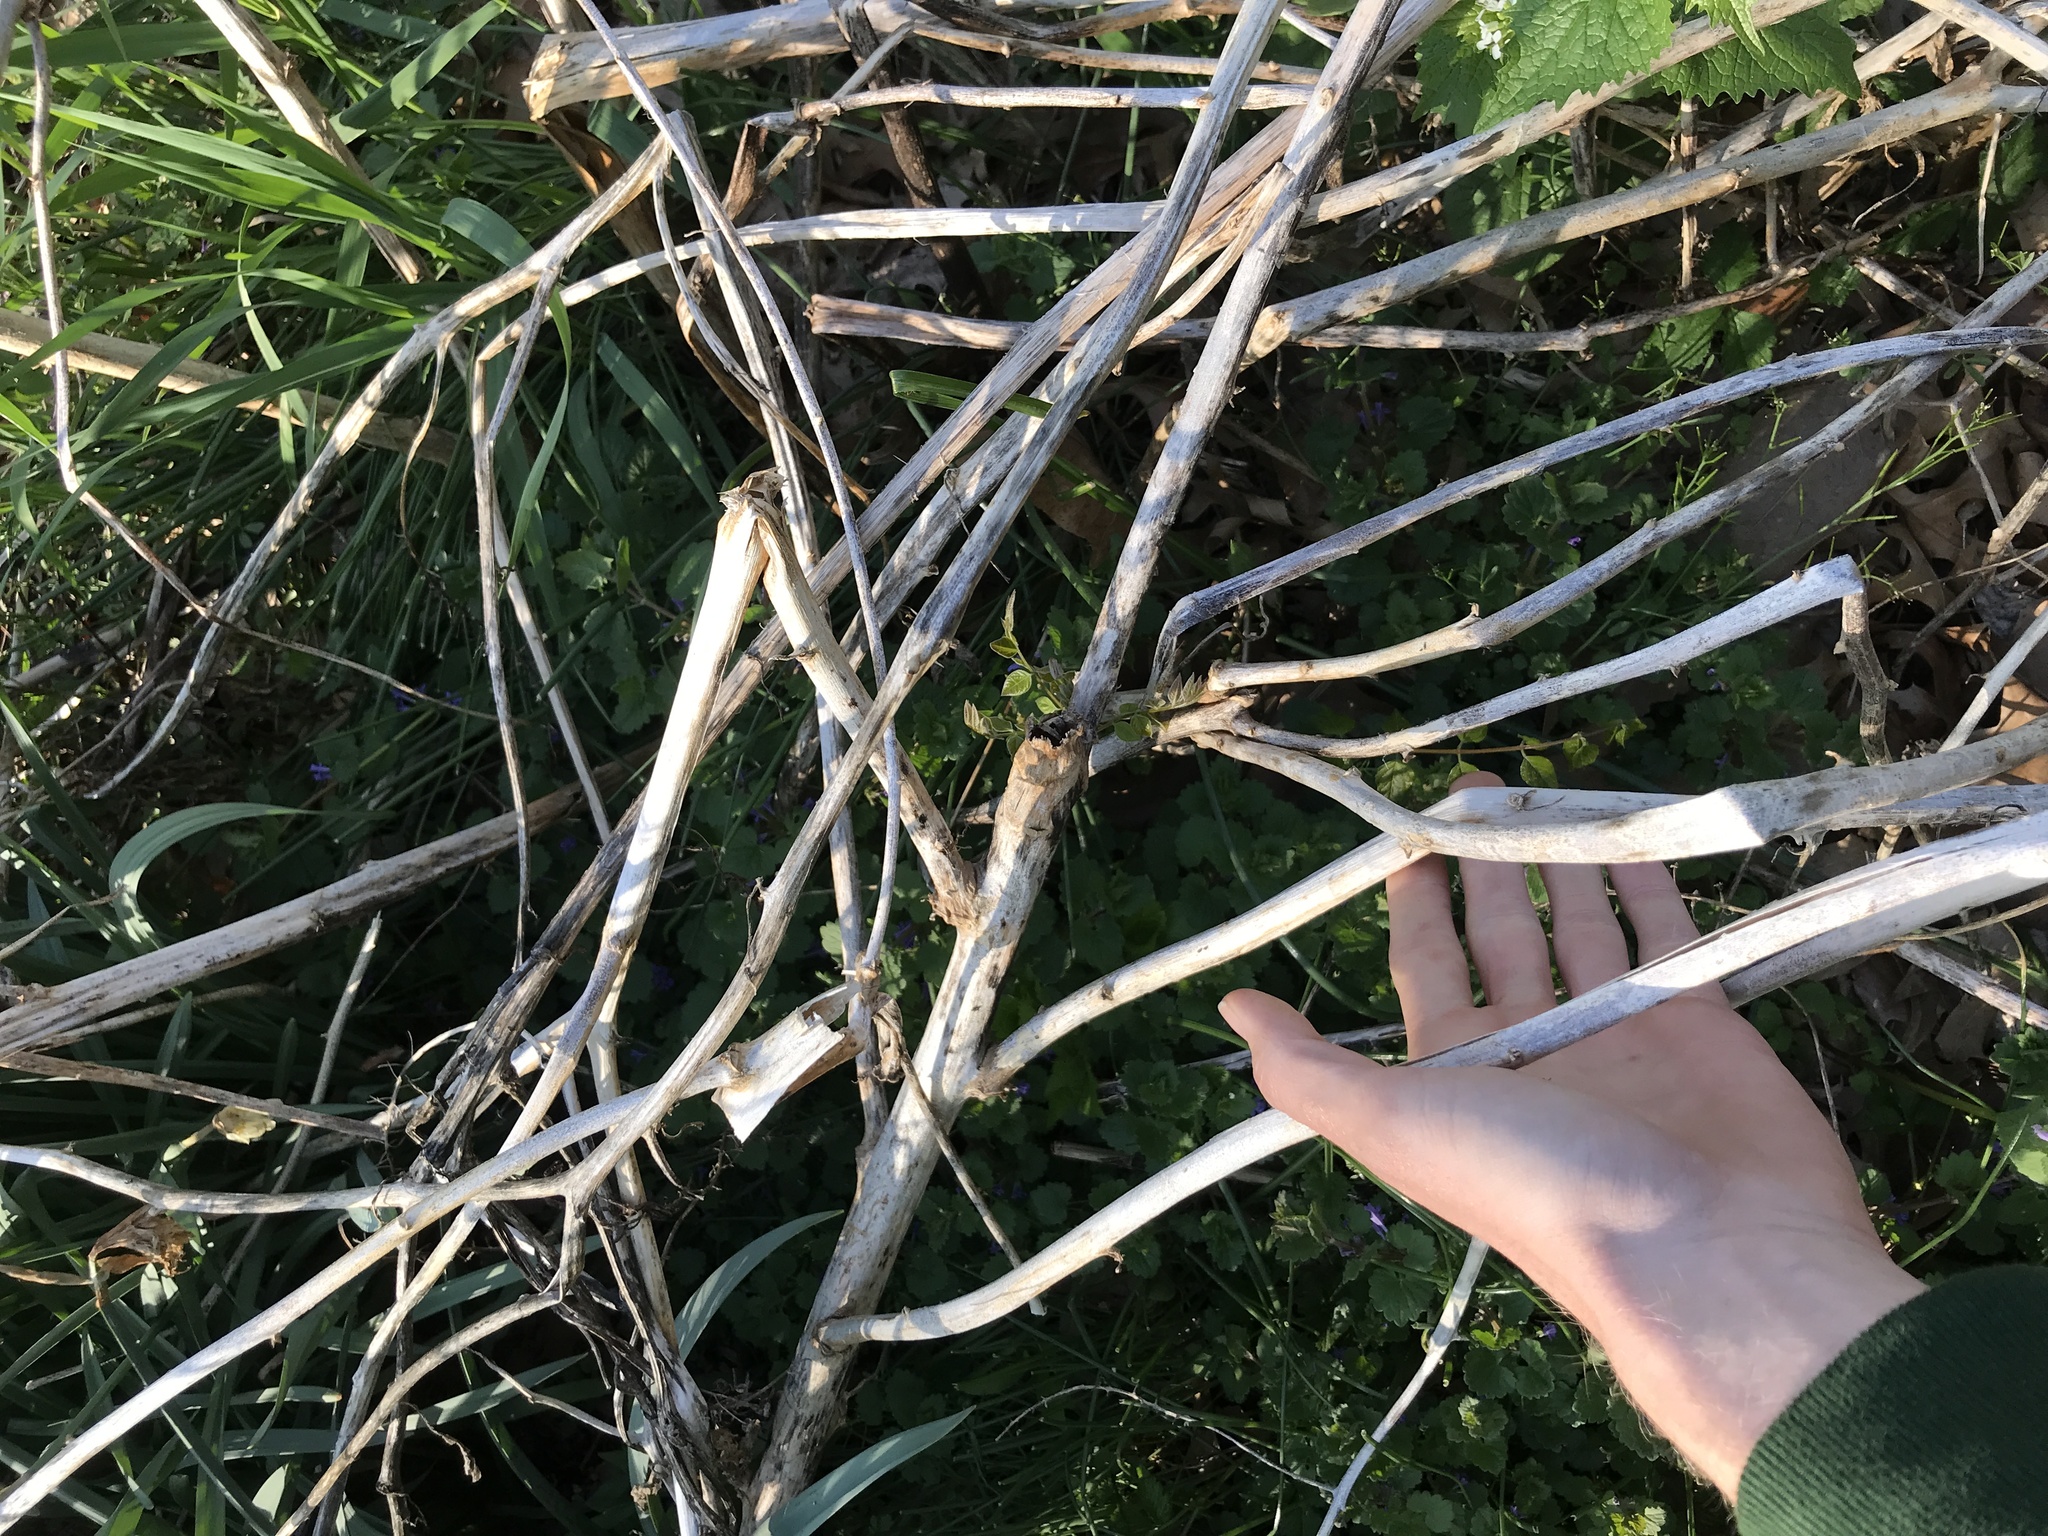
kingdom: Plantae
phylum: Tracheophyta
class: Magnoliopsida
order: Caryophyllales
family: Phytolaccaceae
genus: Phytolacca
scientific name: Phytolacca americana
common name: American pokeweed
